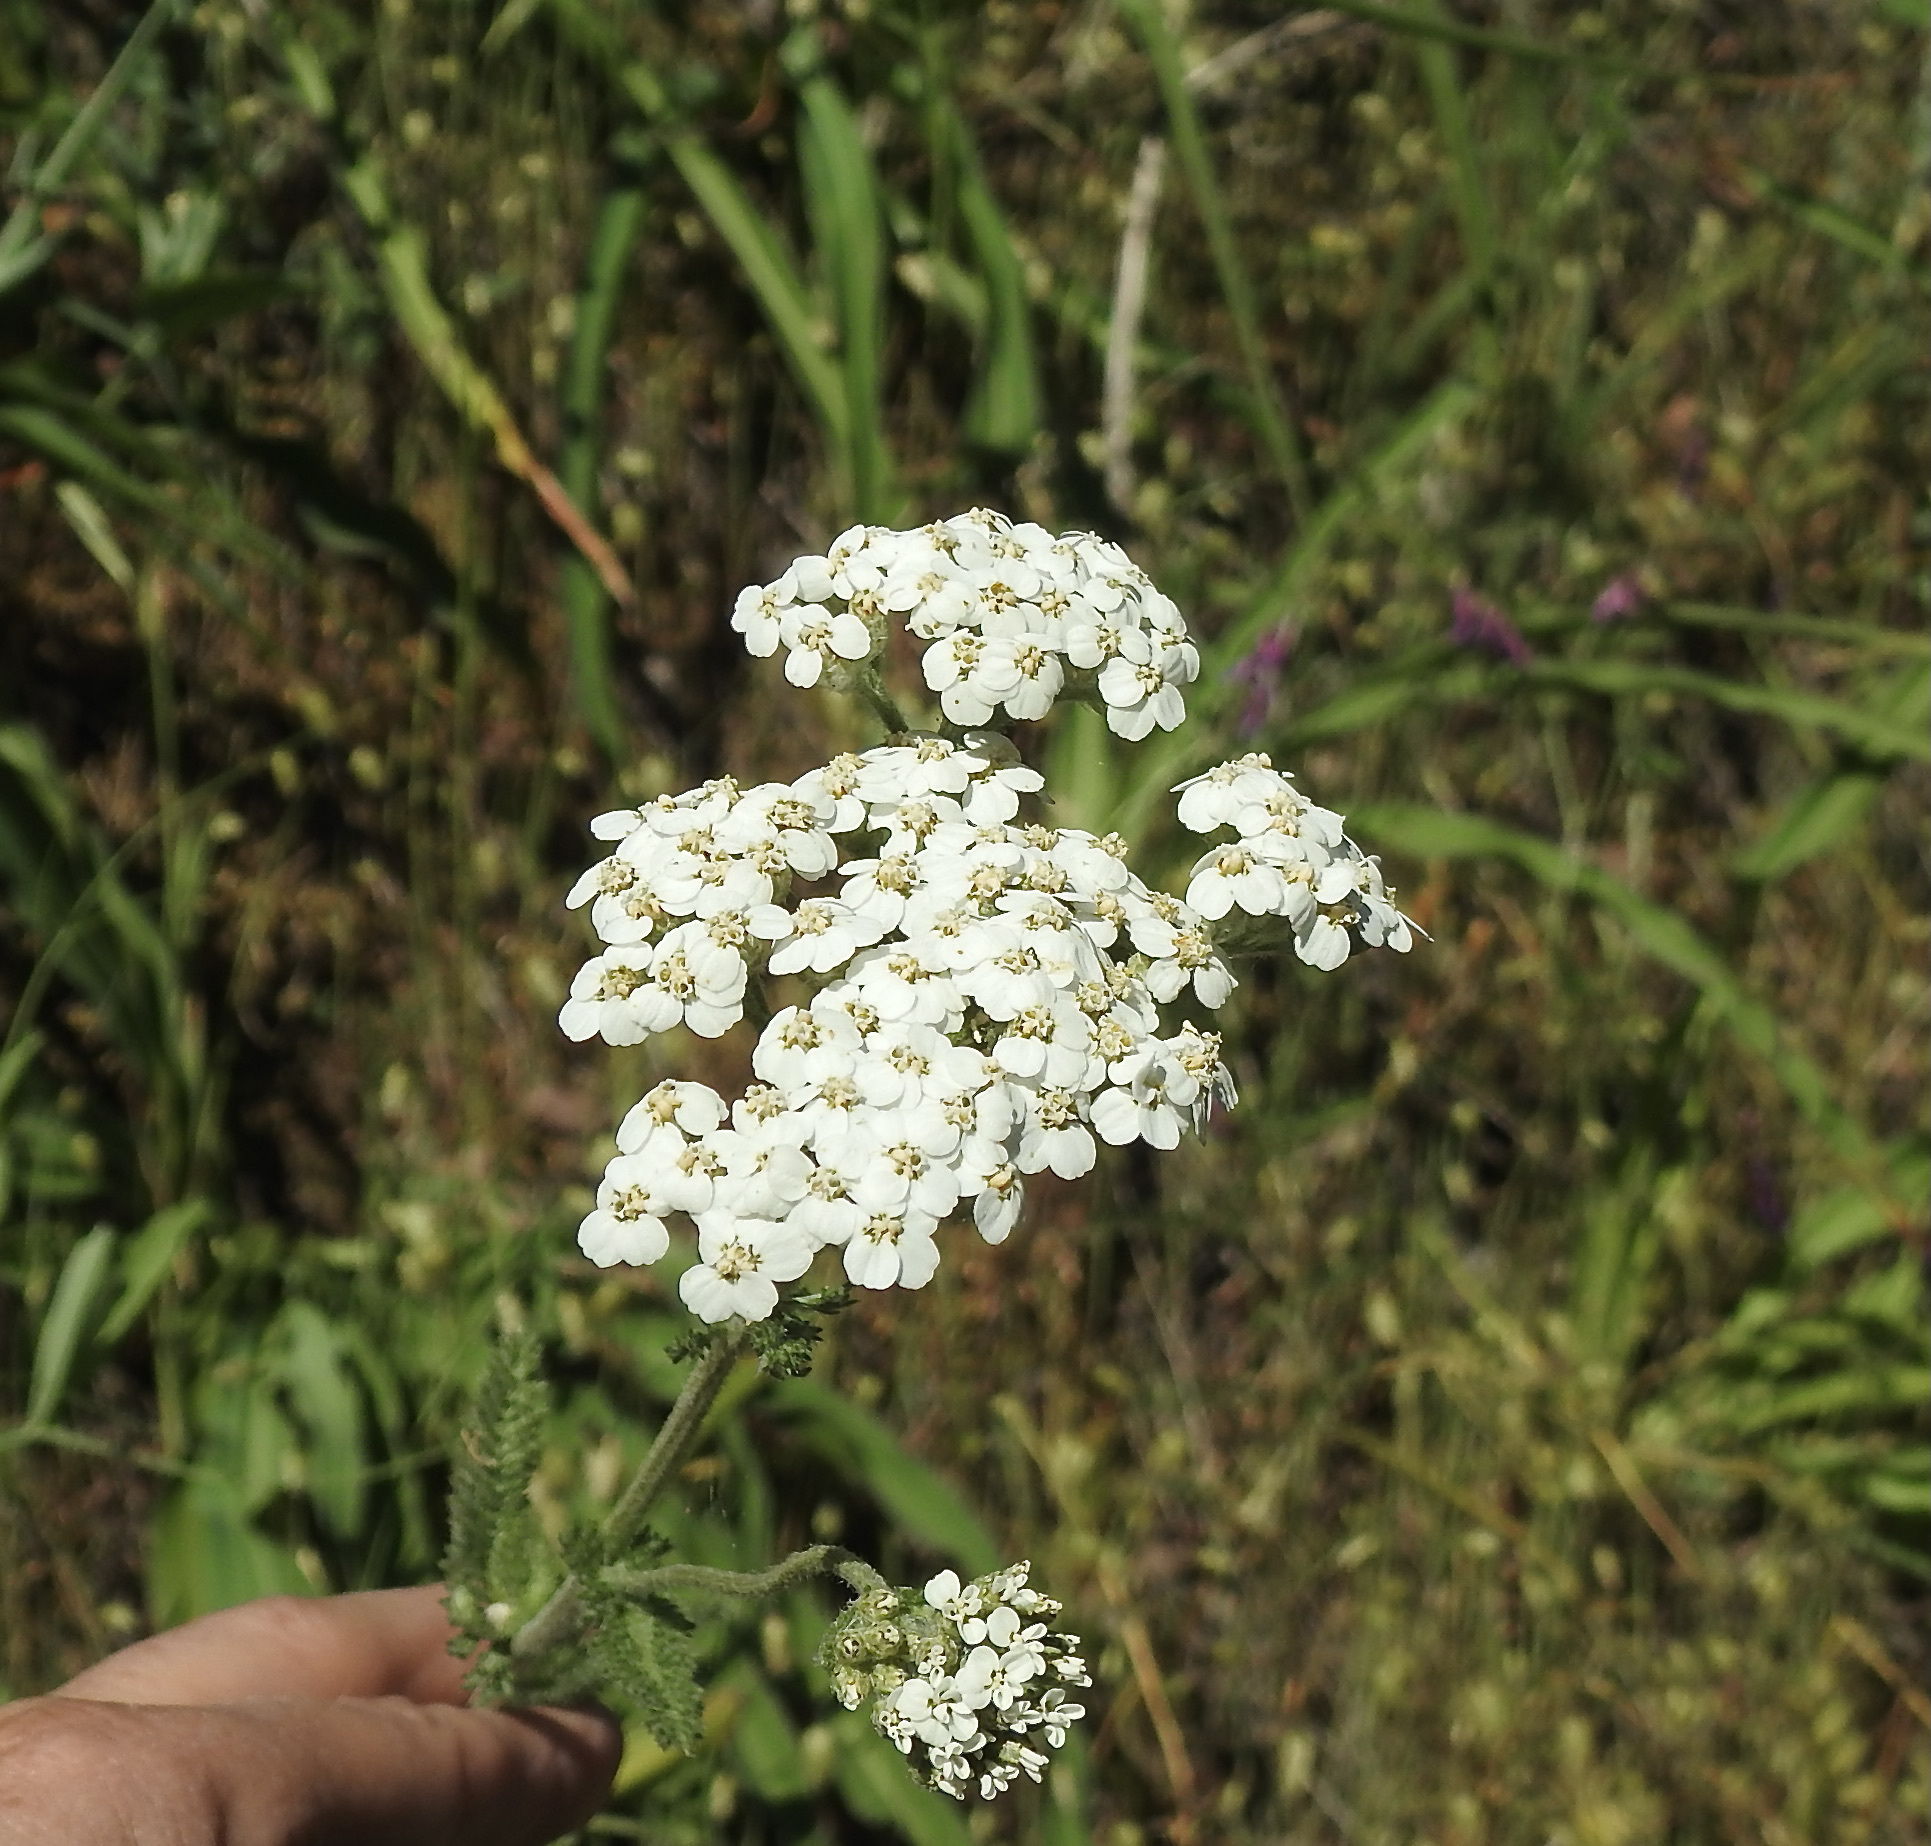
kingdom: Plantae
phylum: Tracheophyta
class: Magnoliopsida
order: Asterales
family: Asteraceae
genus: Achillea
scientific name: Achillea millefolium
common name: Yarrow
